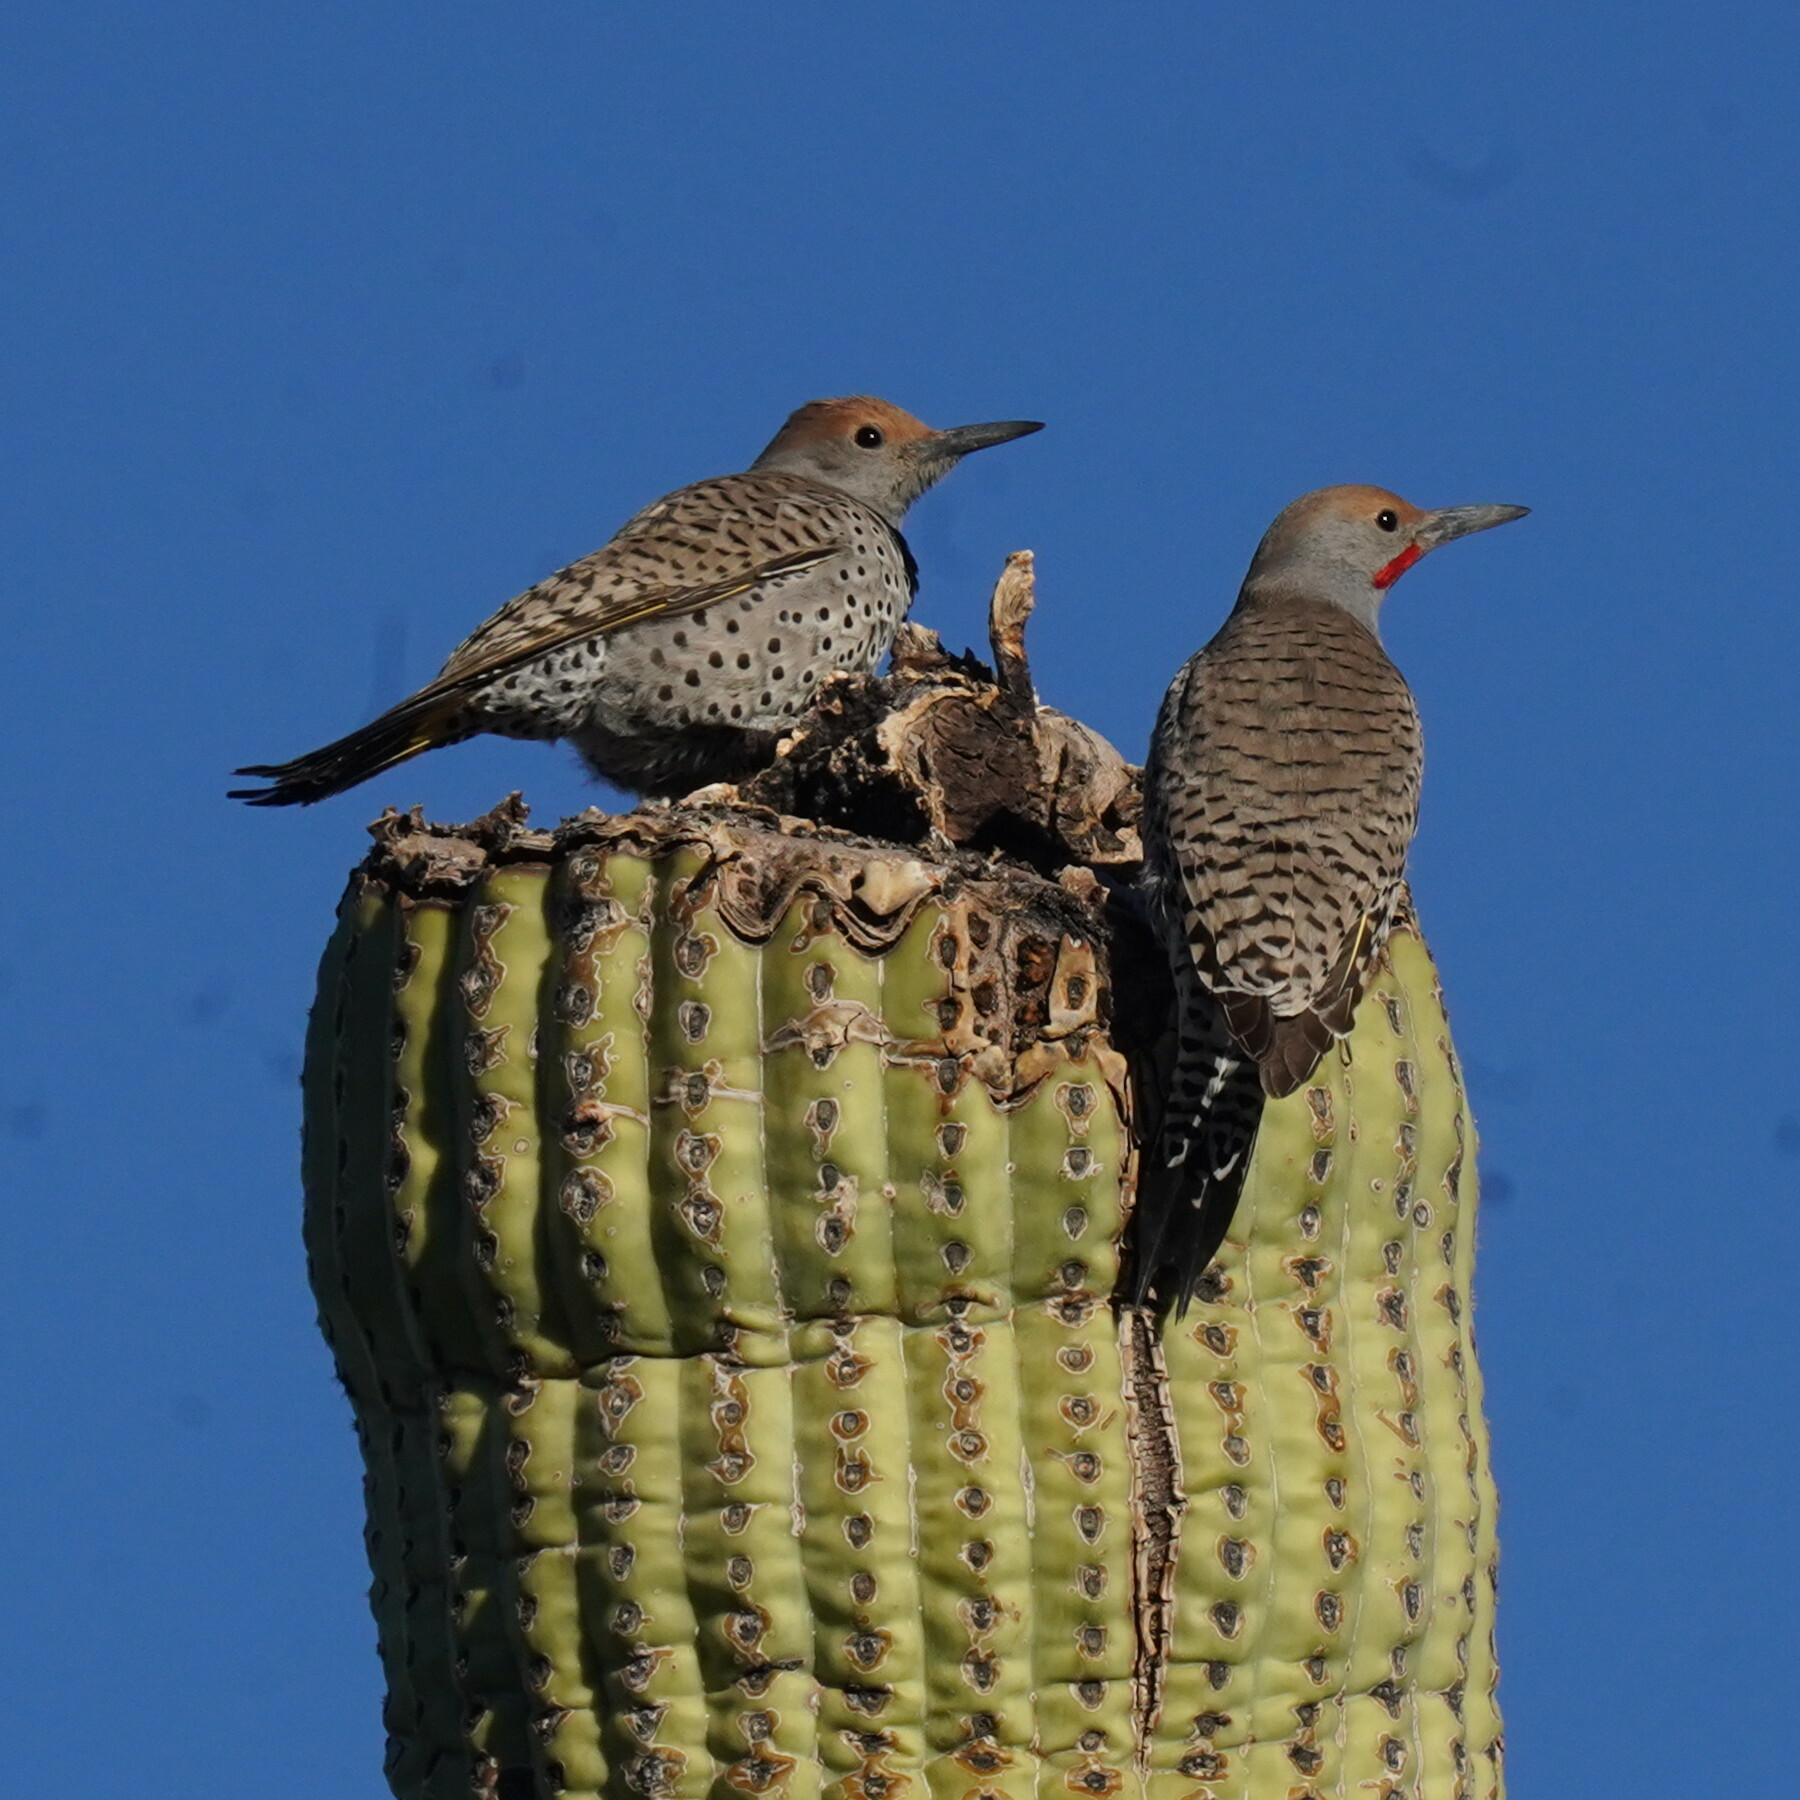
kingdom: Animalia
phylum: Chordata
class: Aves
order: Piciformes
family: Picidae
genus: Colaptes
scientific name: Colaptes chrysoides
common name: Gilded flicker
